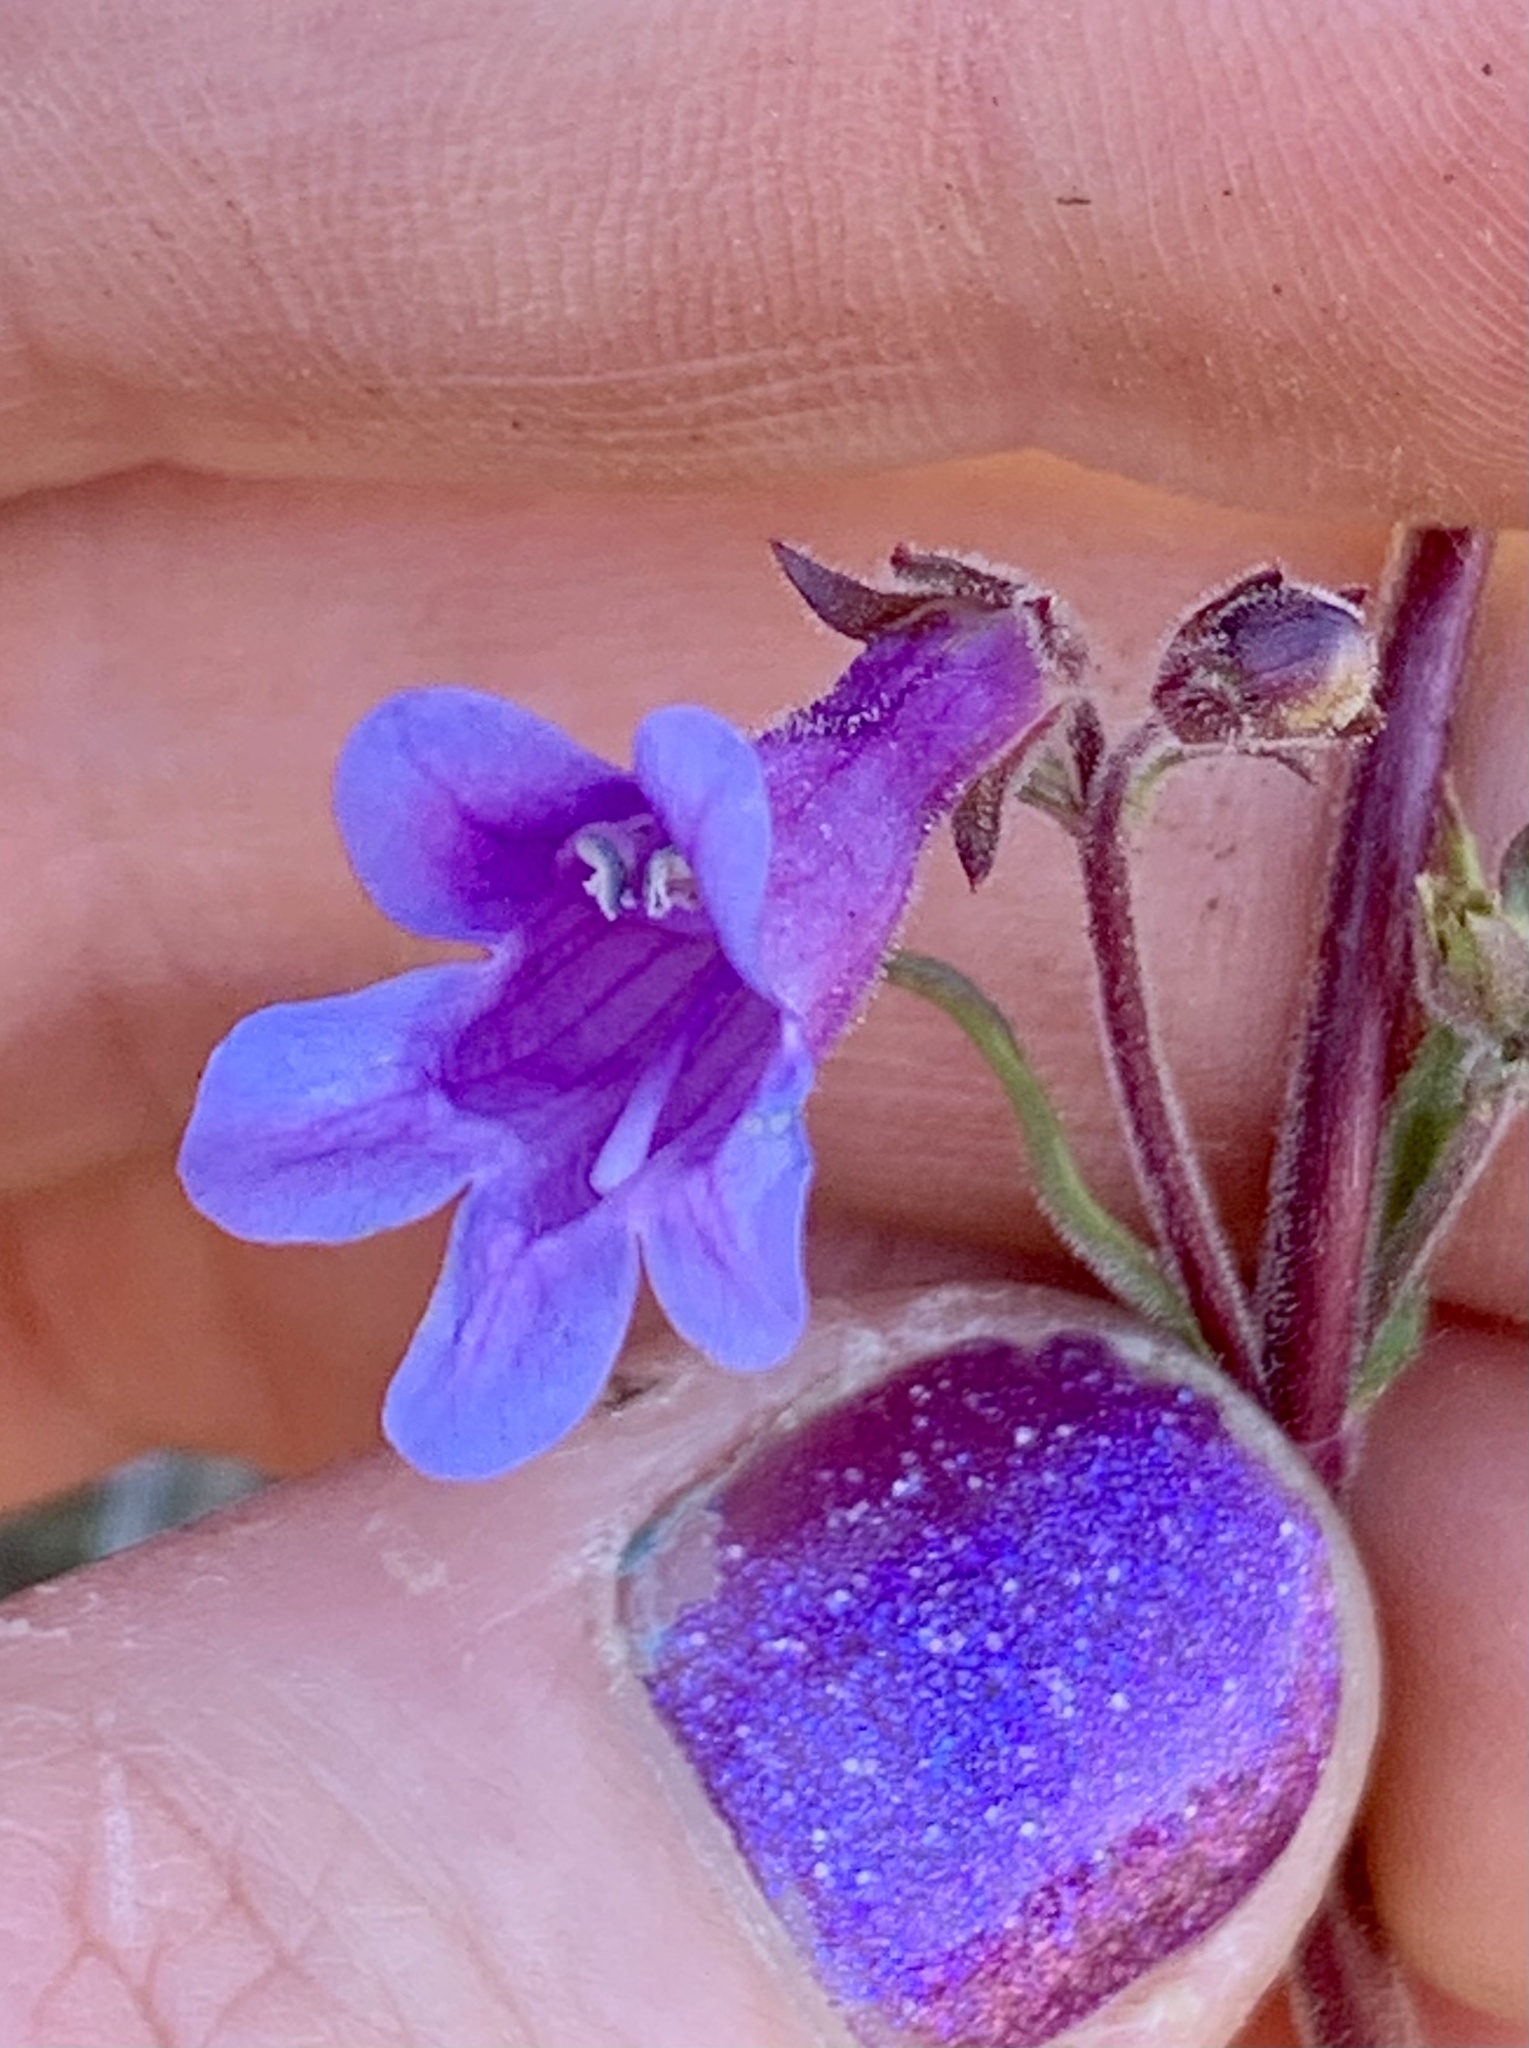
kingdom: Plantae
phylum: Tracheophyta
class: Magnoliopsida
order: Lamiales
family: Plantaginaceae
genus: Penstemon
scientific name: Penstemon roezlii
